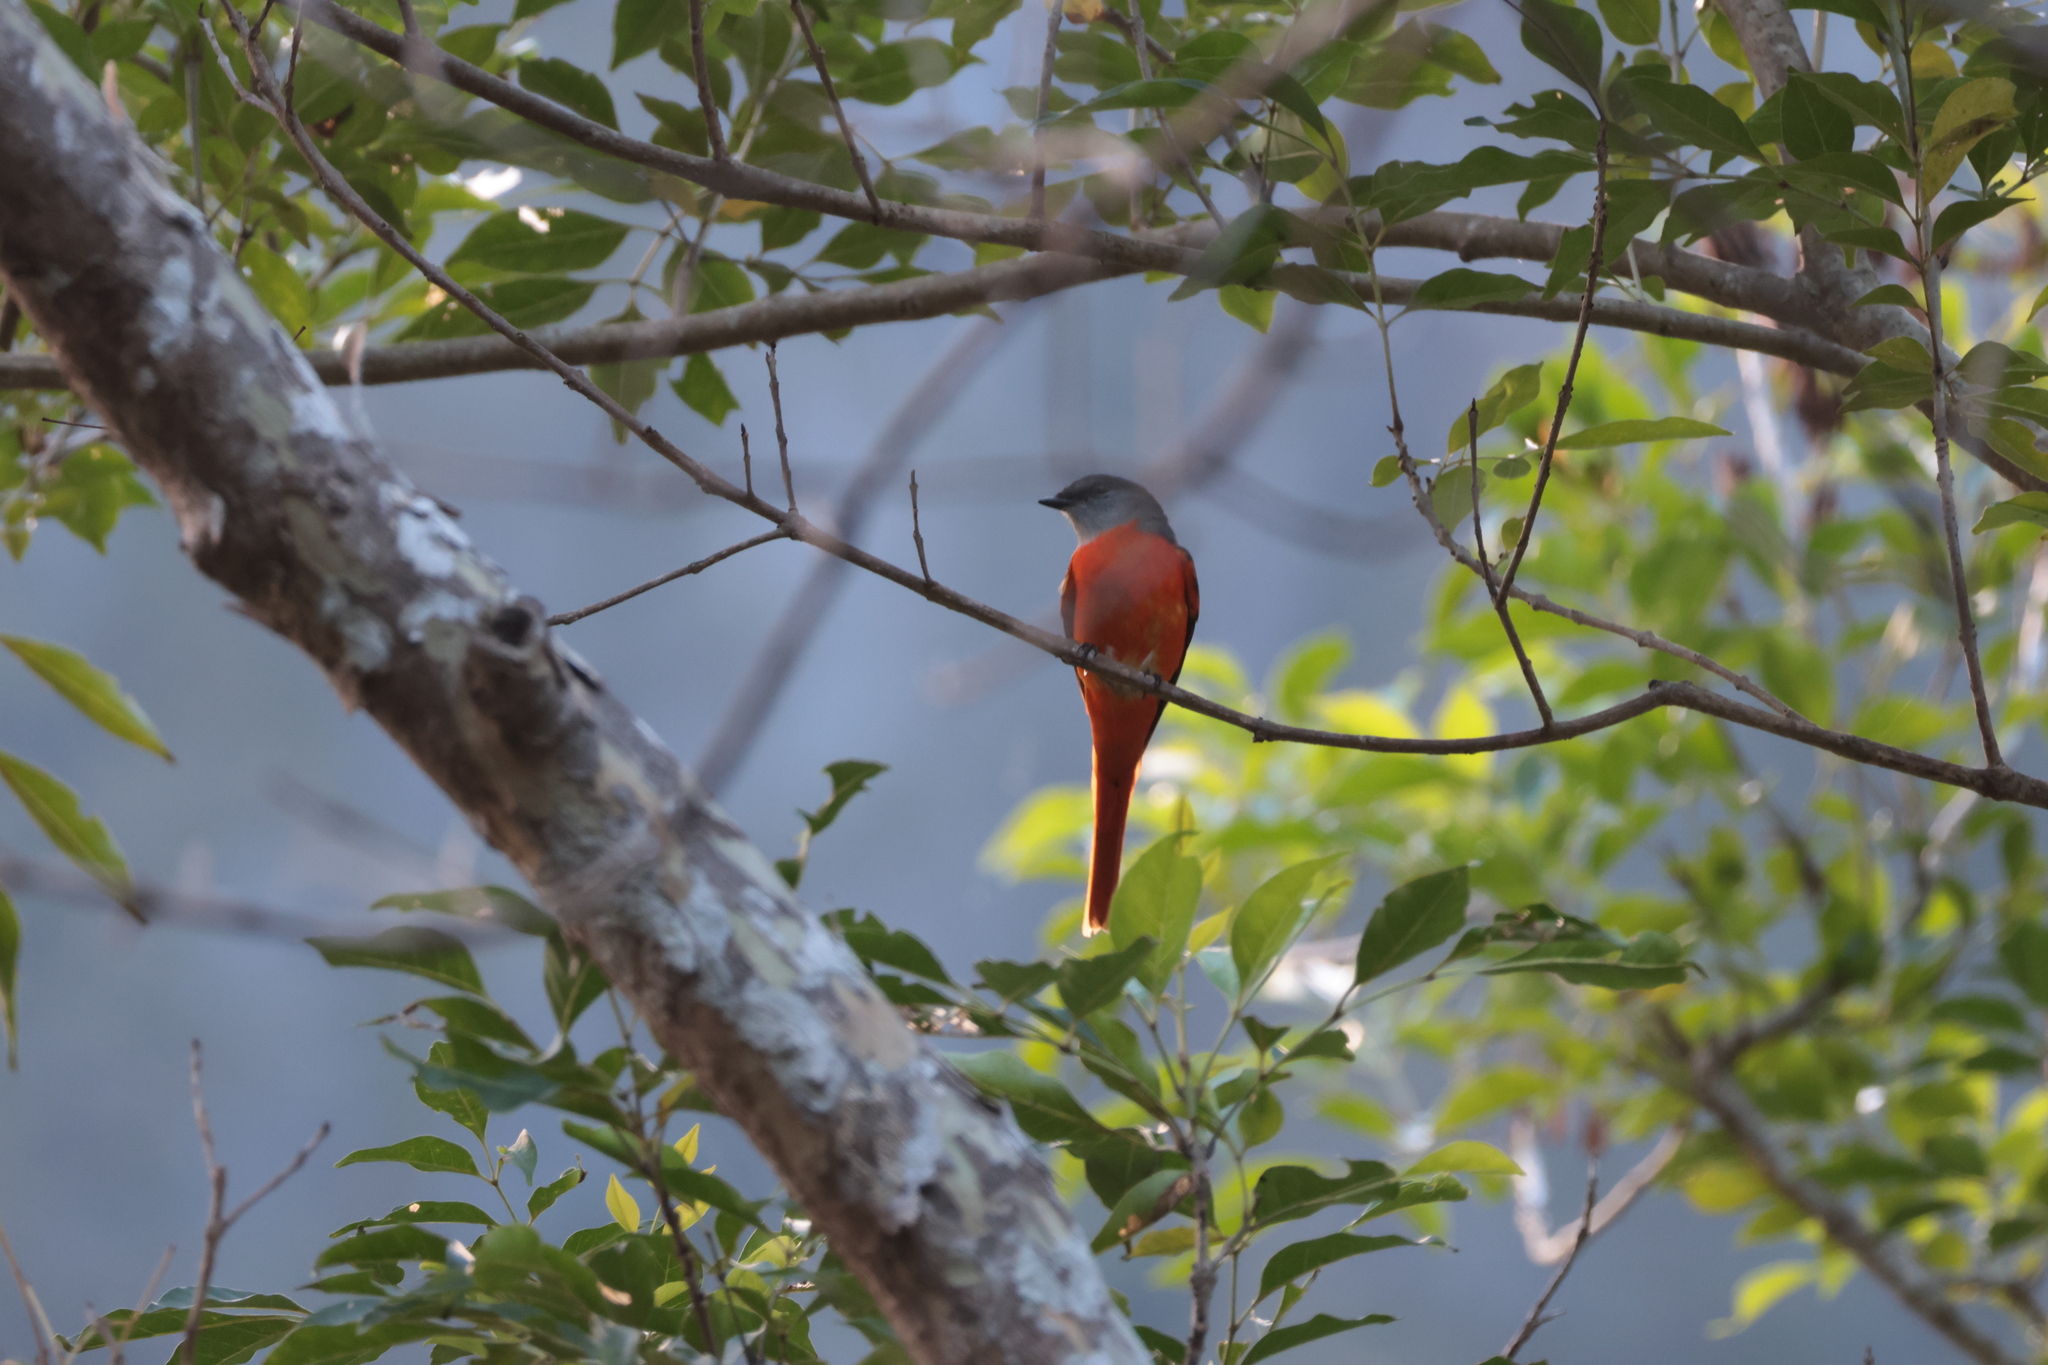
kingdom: Animalia
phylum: Chordata
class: Aves
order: Passeriformes
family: Campephagidae
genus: Pericrocotus
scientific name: Pericrocotus solaris
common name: Grey-chinned minivet
